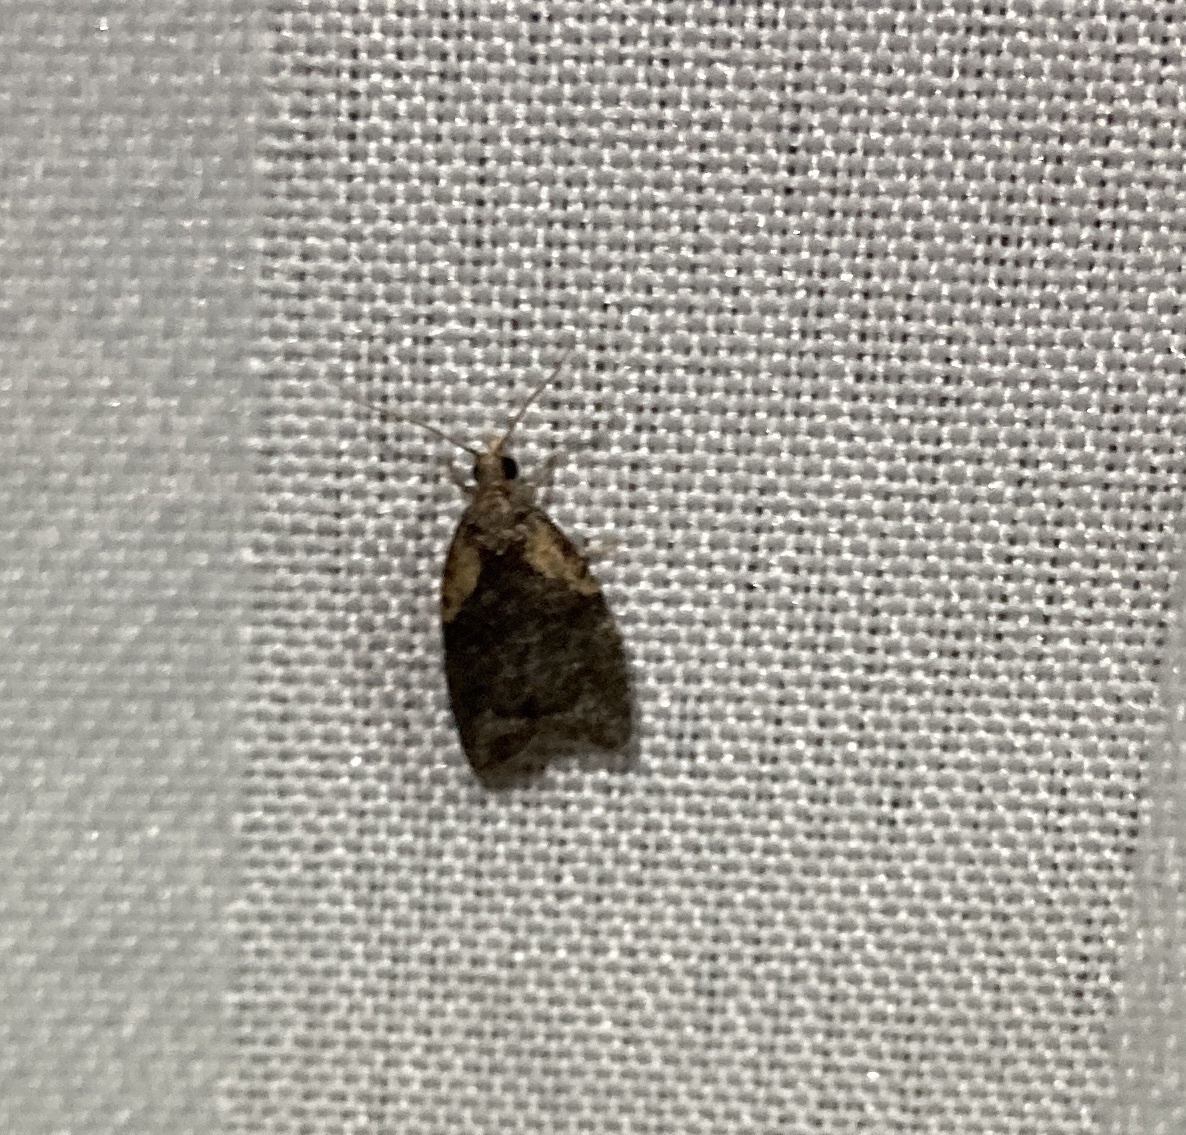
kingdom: Animalia
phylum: Arthropoda
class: Insecta
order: Lepidoptera
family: Tortricidae
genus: Capua
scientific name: Capua intractana
